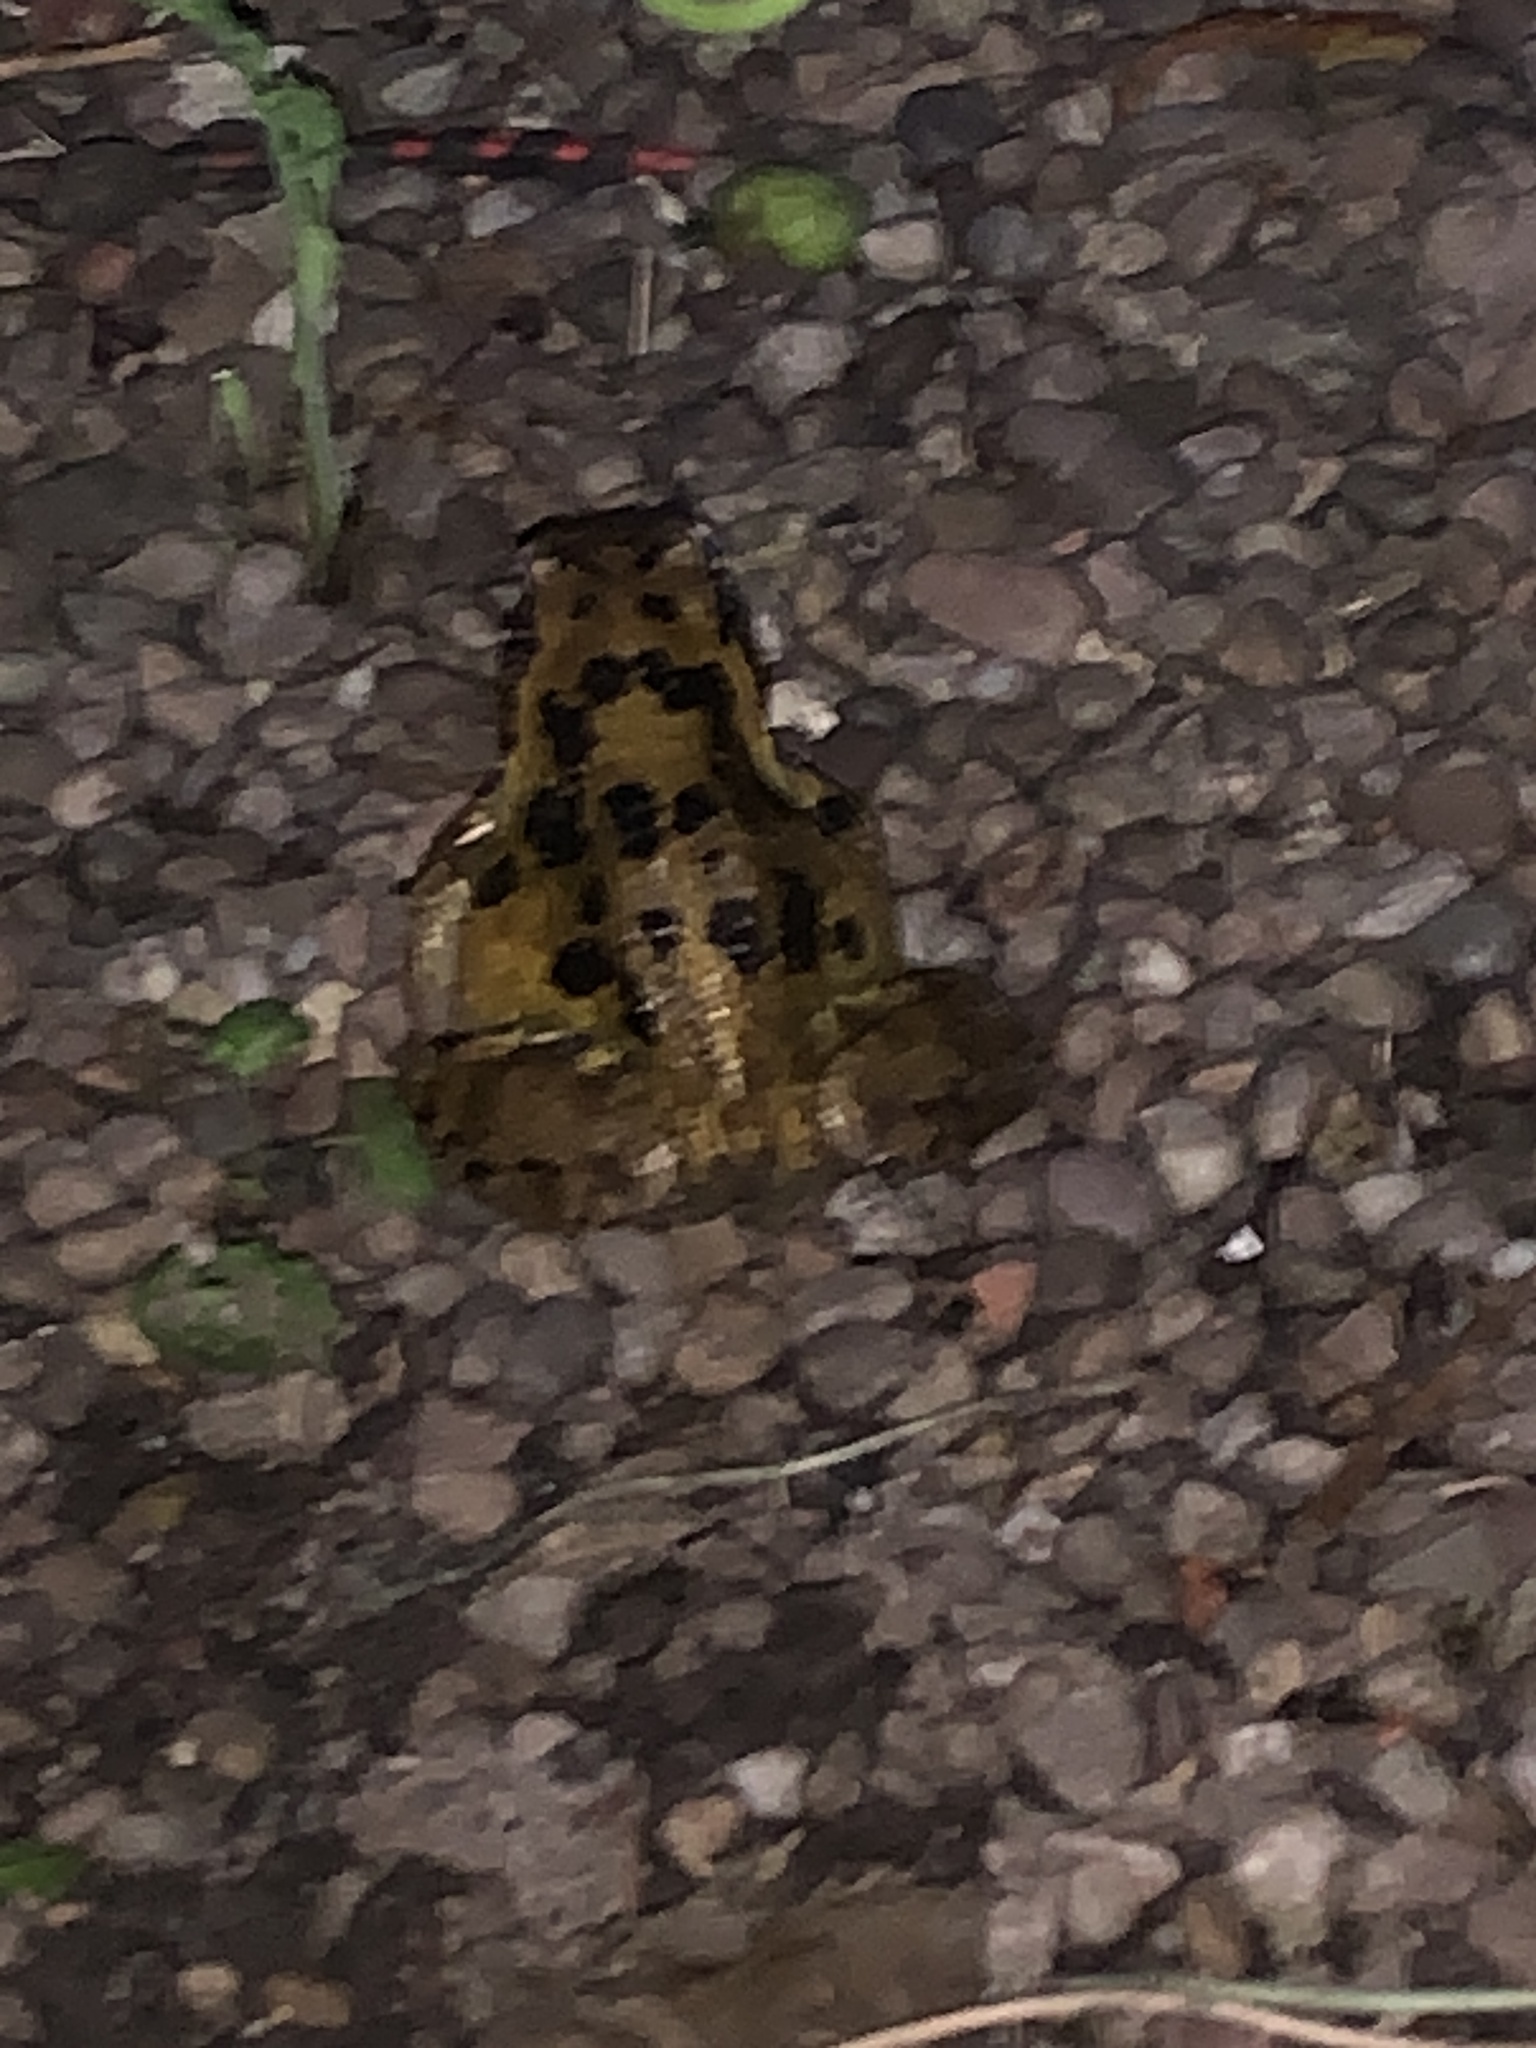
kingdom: Animalia
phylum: Chordata
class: Amphibia
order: Anura
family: Ranidae
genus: Rana
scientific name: Rana temporaria
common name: Common frog
